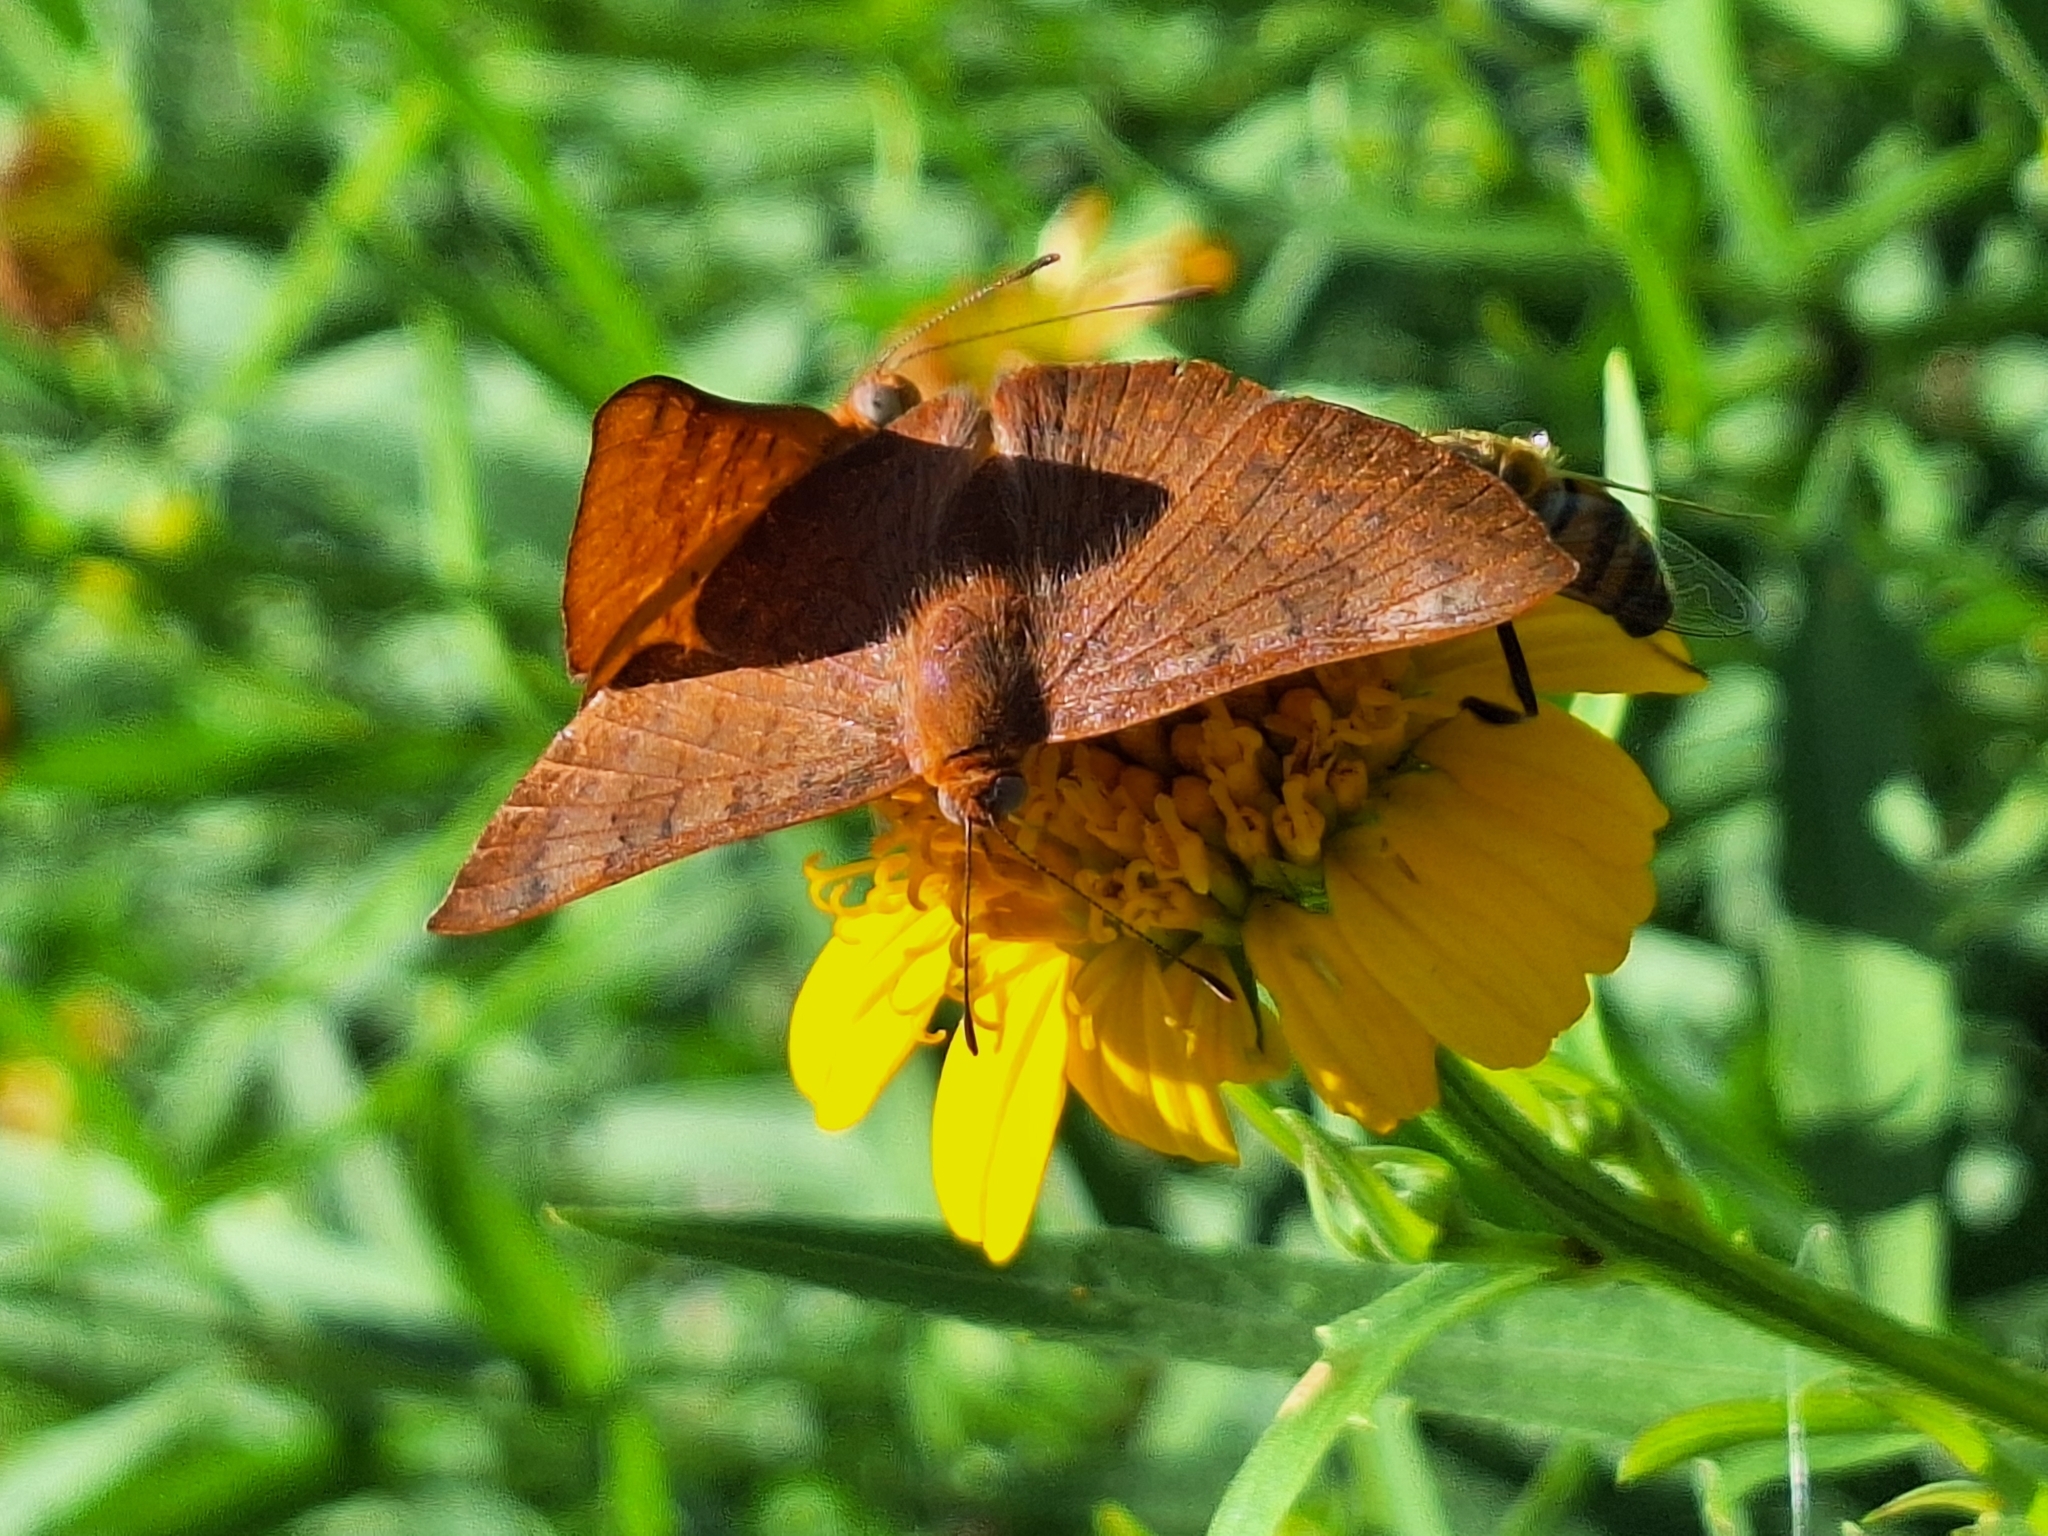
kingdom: Animalia
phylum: Arthropoda
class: Insecta
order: Lepidoptera
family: Lycaenidae
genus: Emesis
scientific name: Emesis russula
